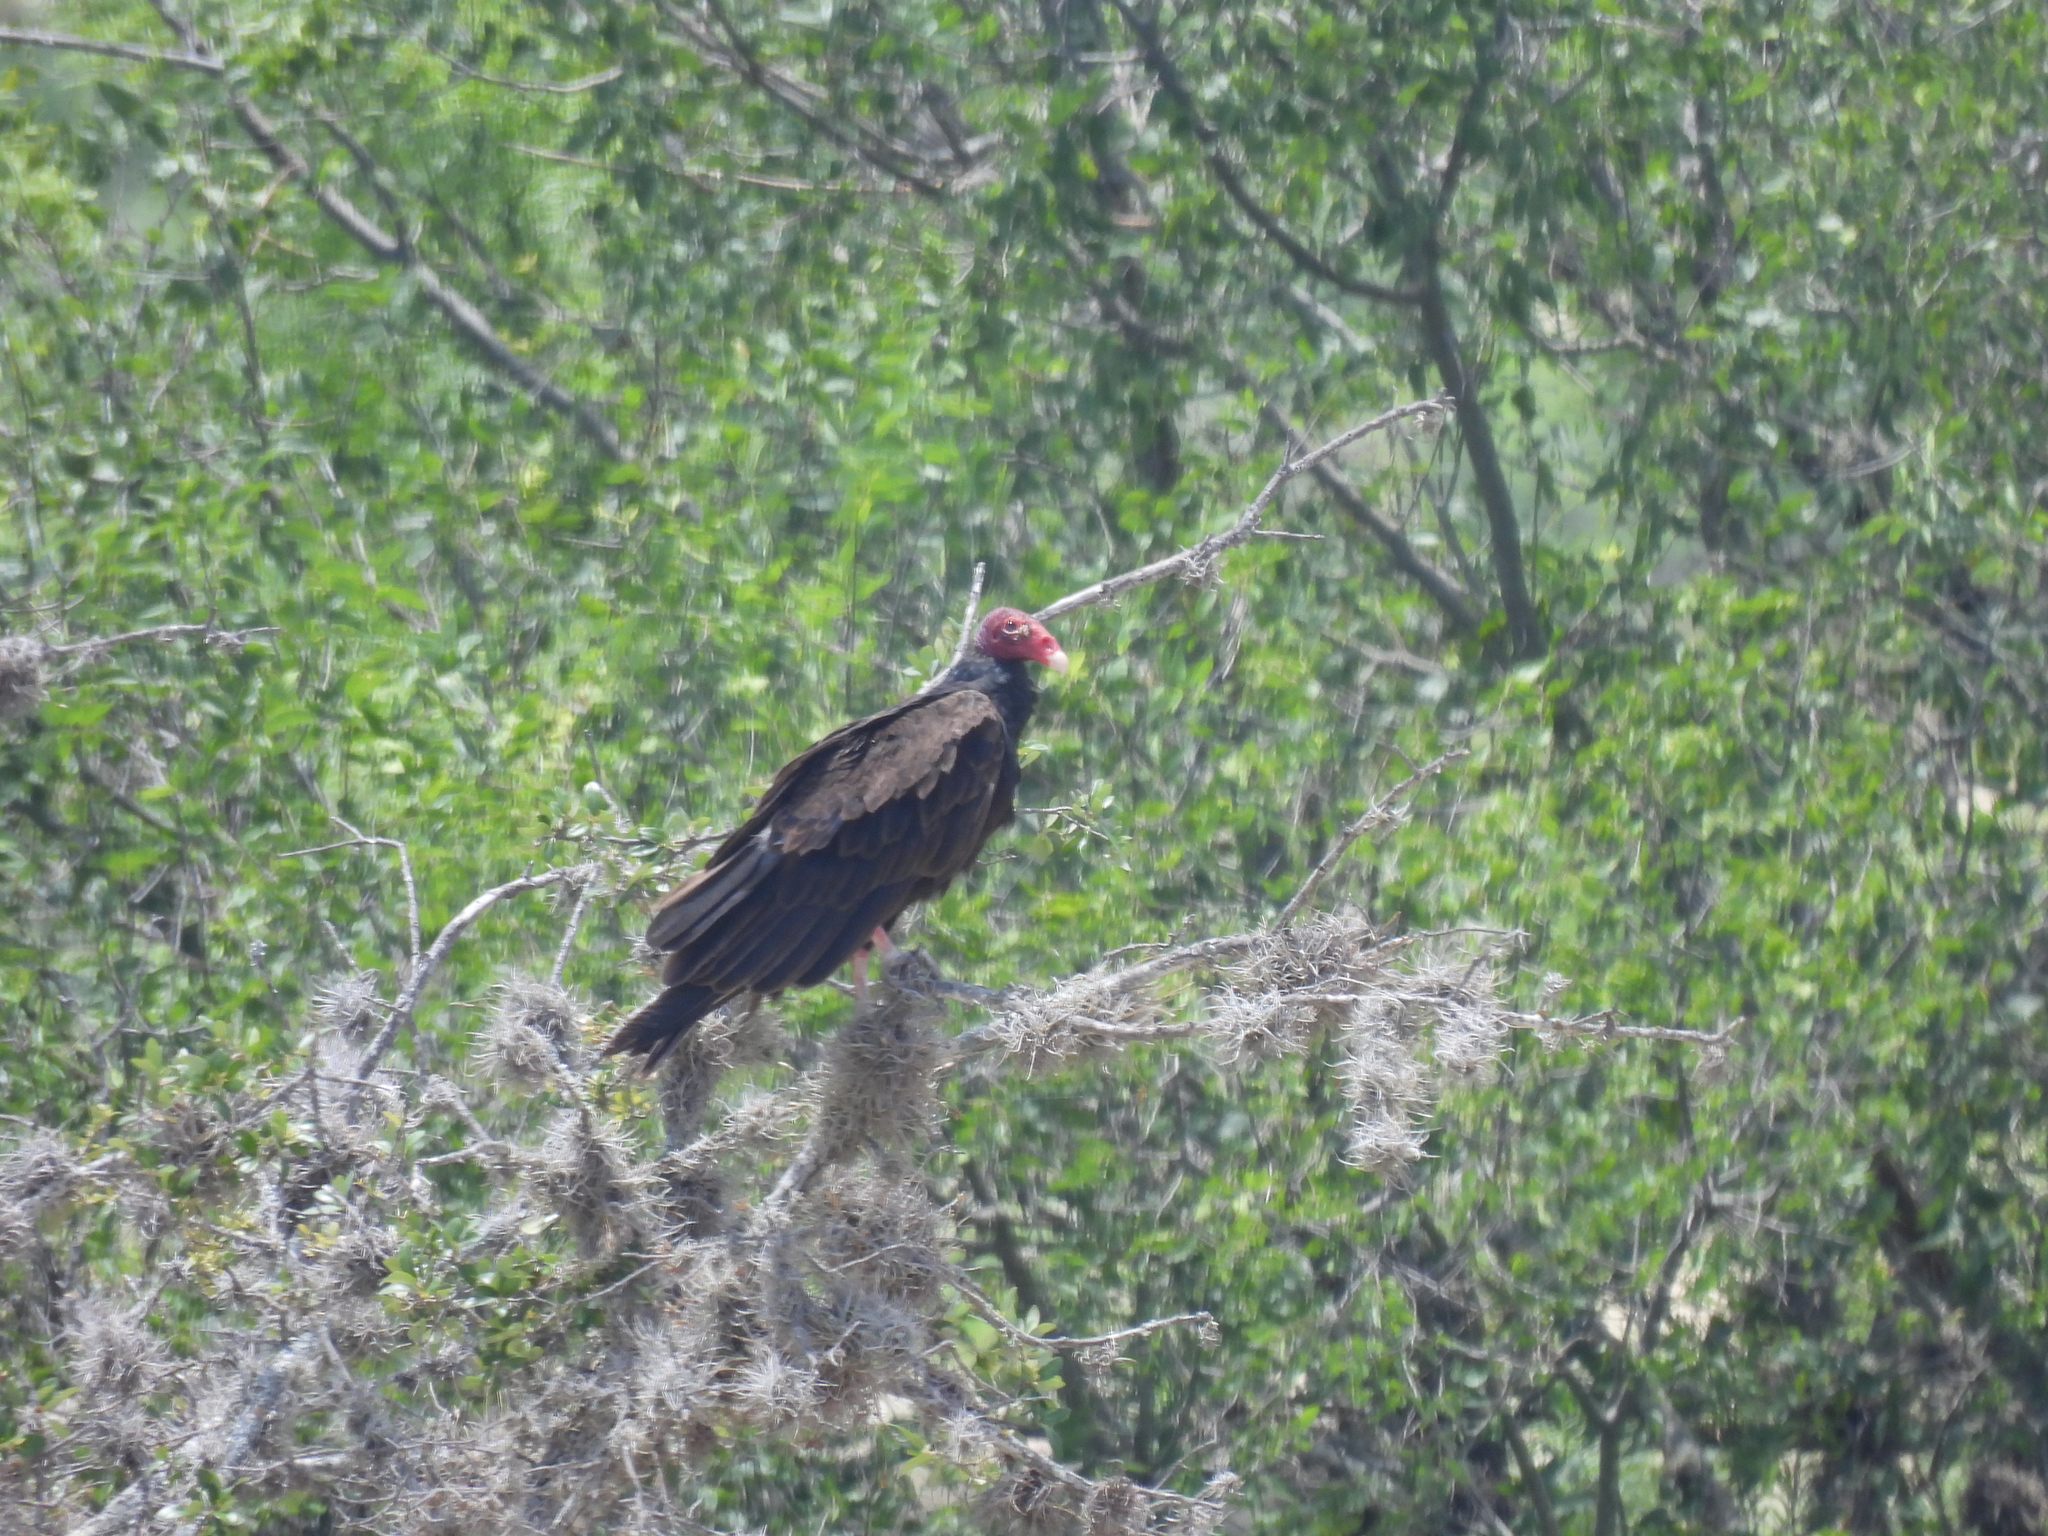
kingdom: Animalia
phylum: Chordata
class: Aves
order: Accipitriformes
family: Cathartidae
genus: Cathartes
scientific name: Cathartes aura
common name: Turkey vulture
